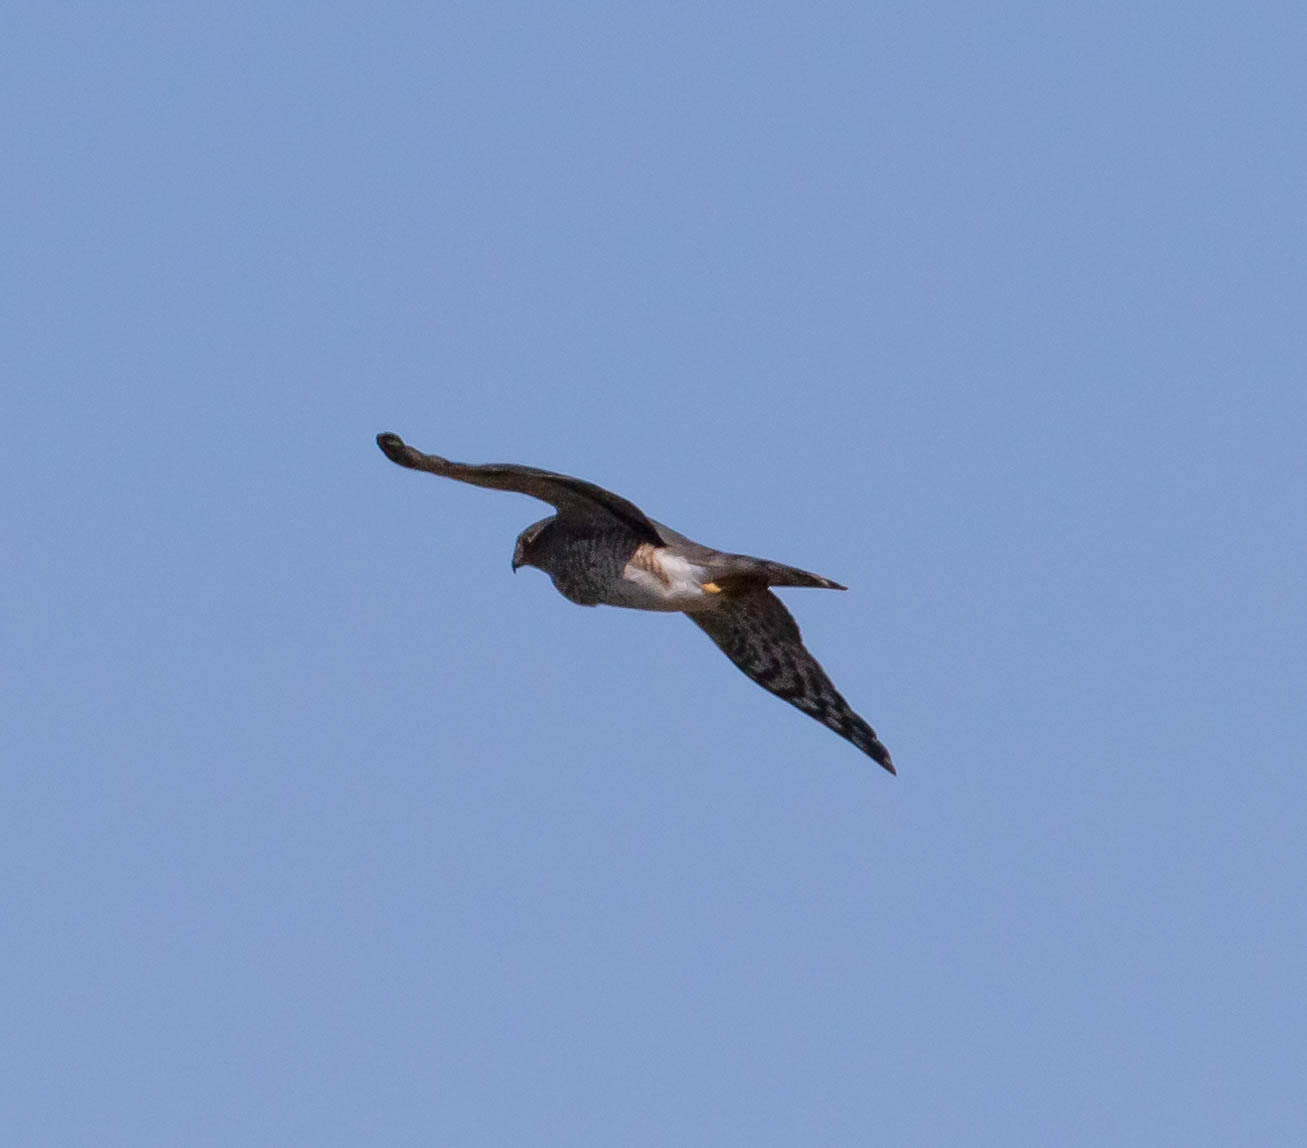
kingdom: Animalia
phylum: Chordata
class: Aves
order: Accipitriformes
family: Accipitridae
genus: Accipiter
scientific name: Accipiter striatus
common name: Sharp-shinned hawk
